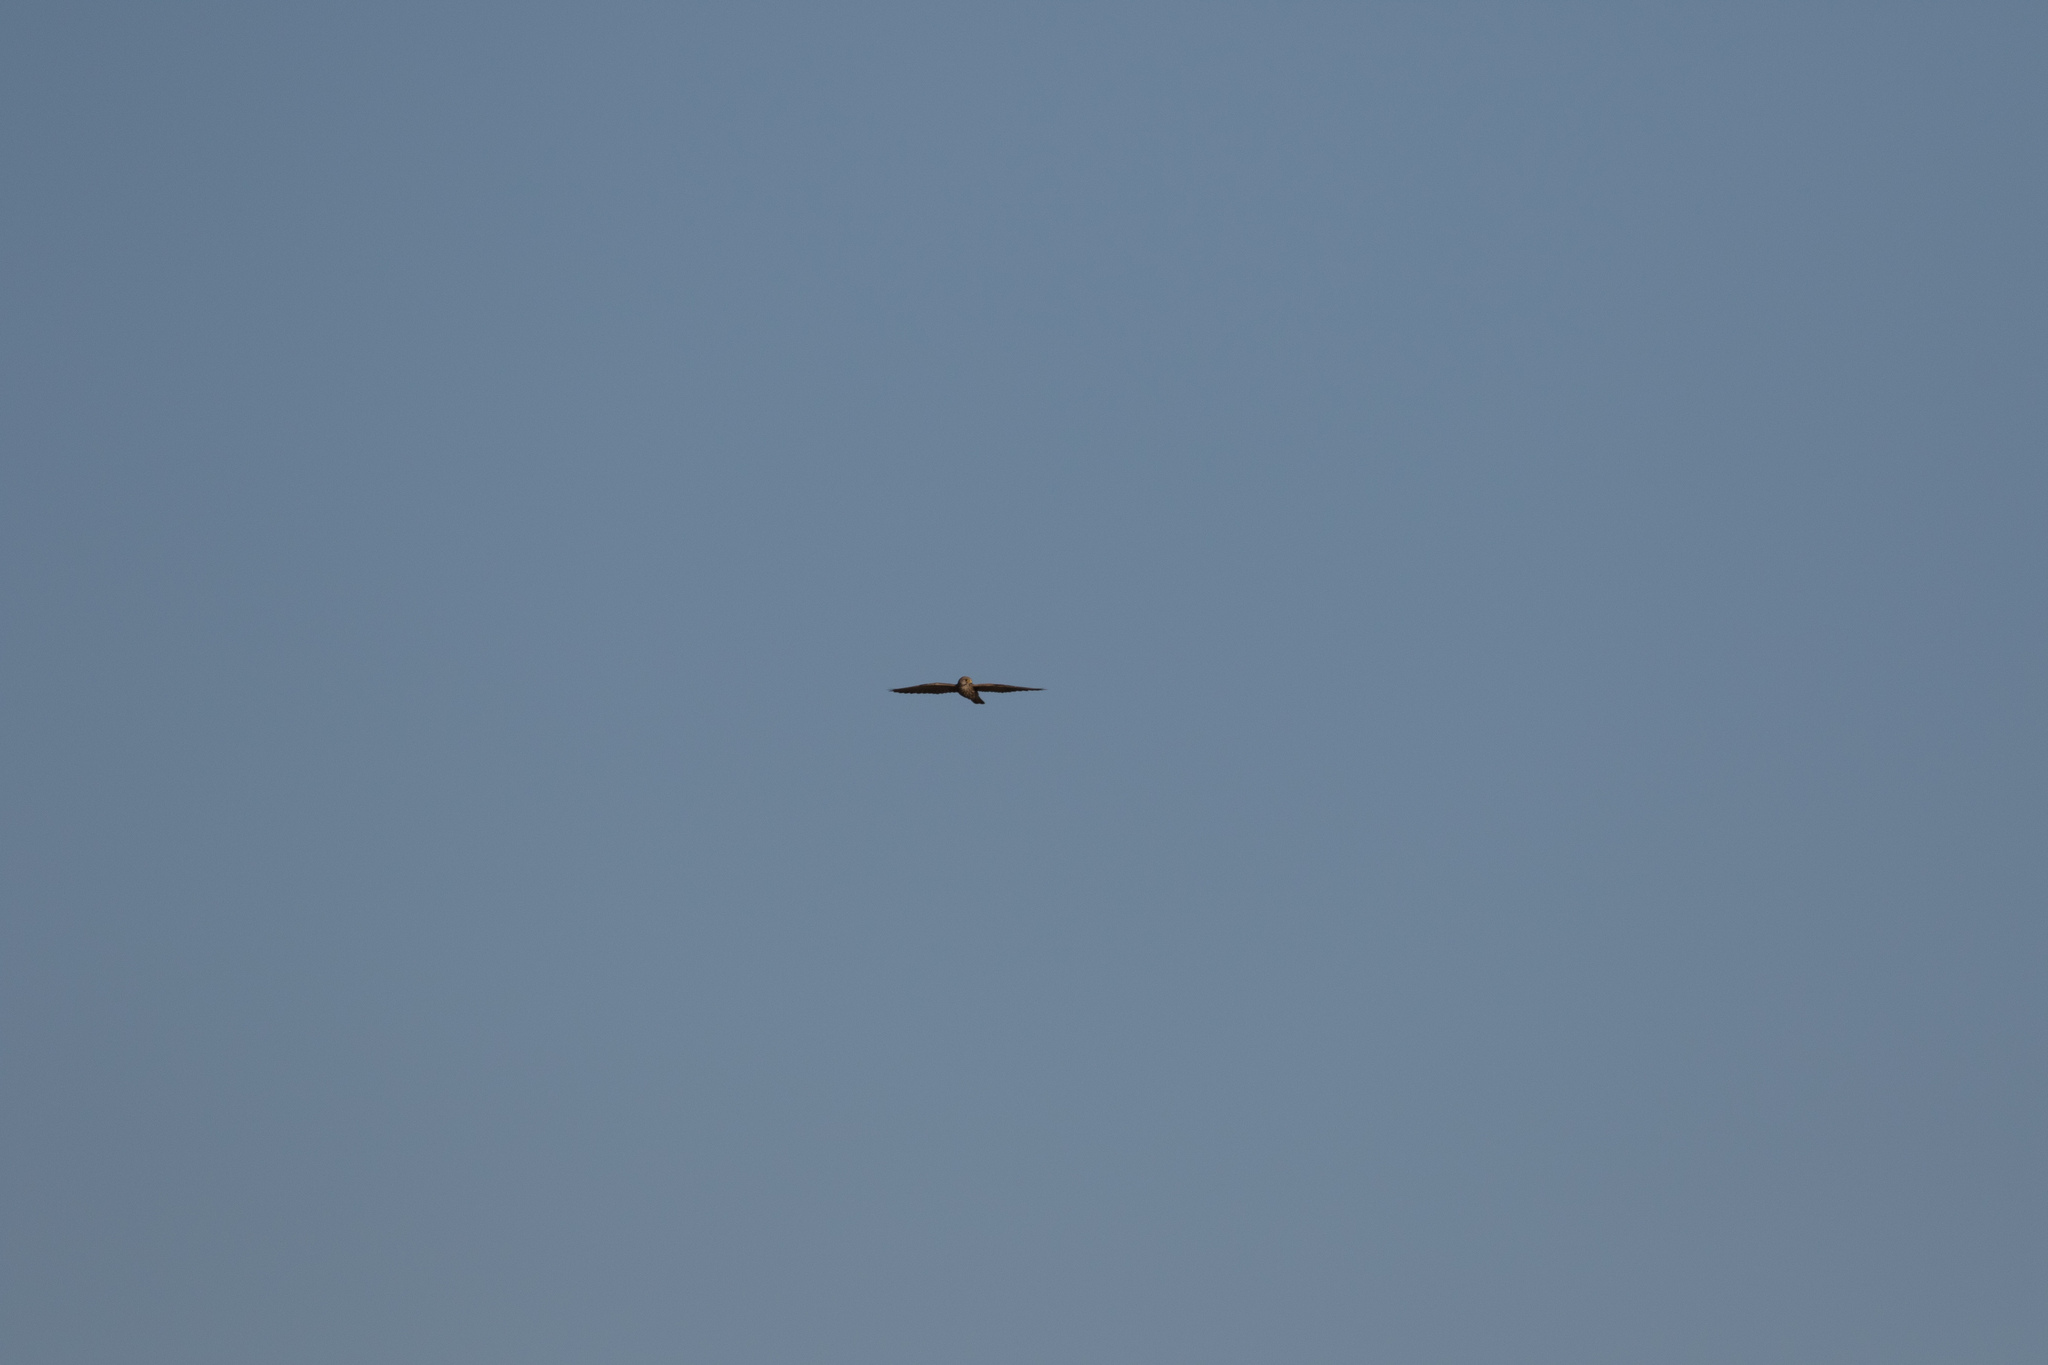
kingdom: Animalia
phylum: Chordata
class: Aves
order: Falconiformes
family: Falconidae
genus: Falco
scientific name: Falco tinnunculus
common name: Common kestrel
